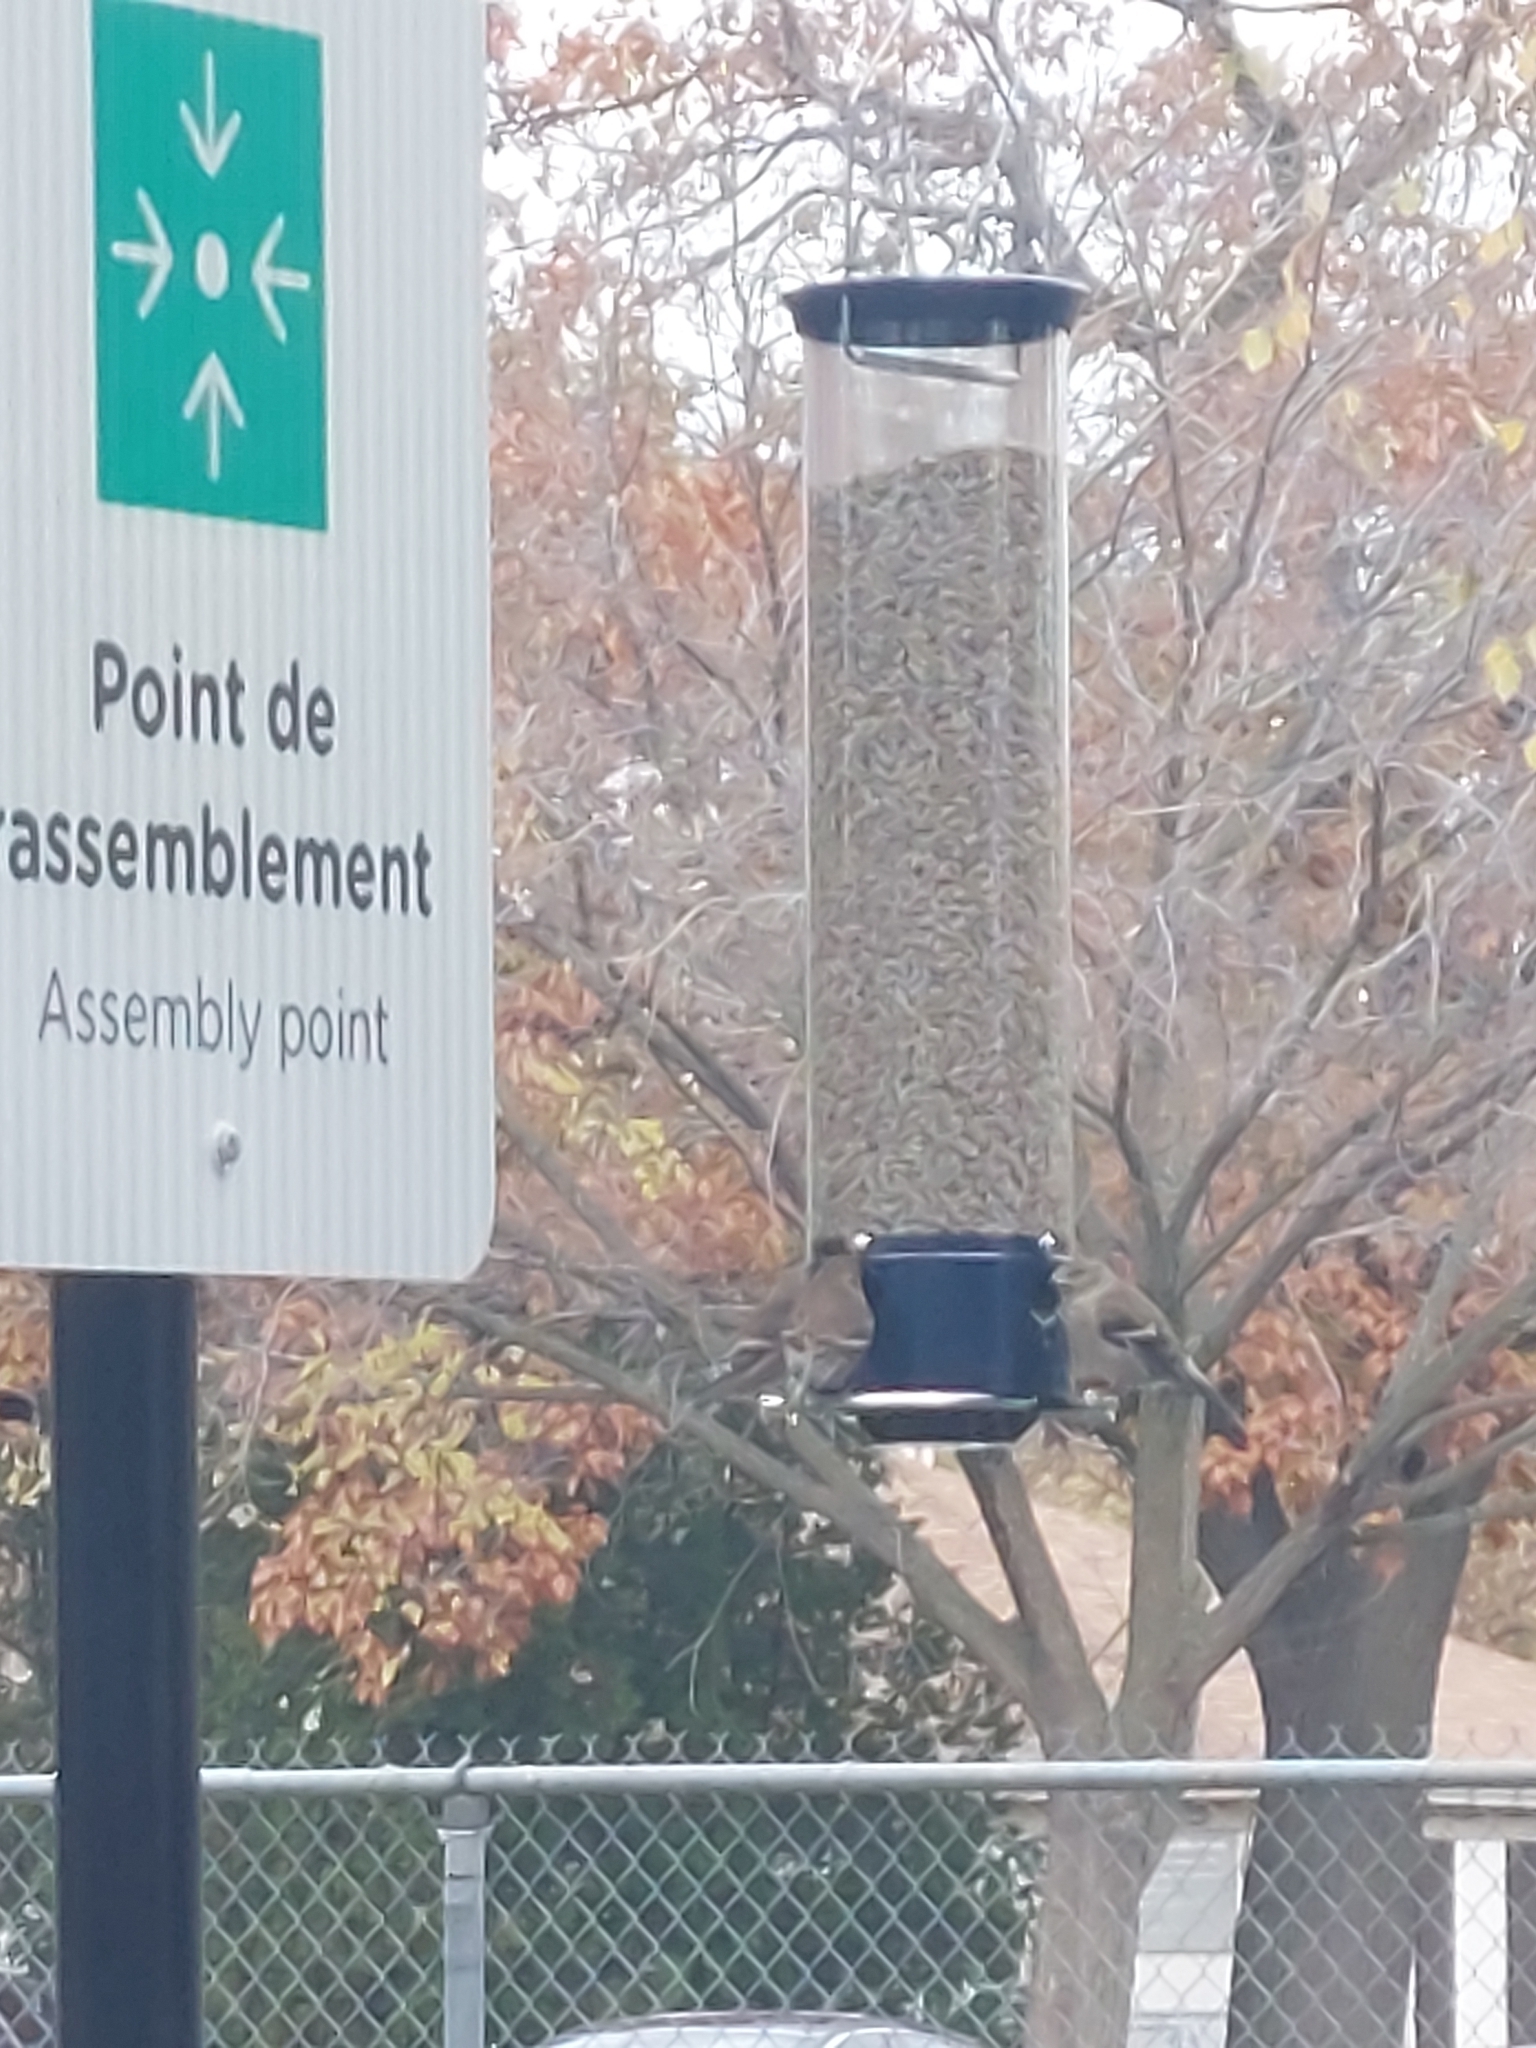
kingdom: Animalia
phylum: Chordata
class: Aves
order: Passeriformes
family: Fringillidae
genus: Spinus
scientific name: Spinus tristis
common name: American goldfinch
